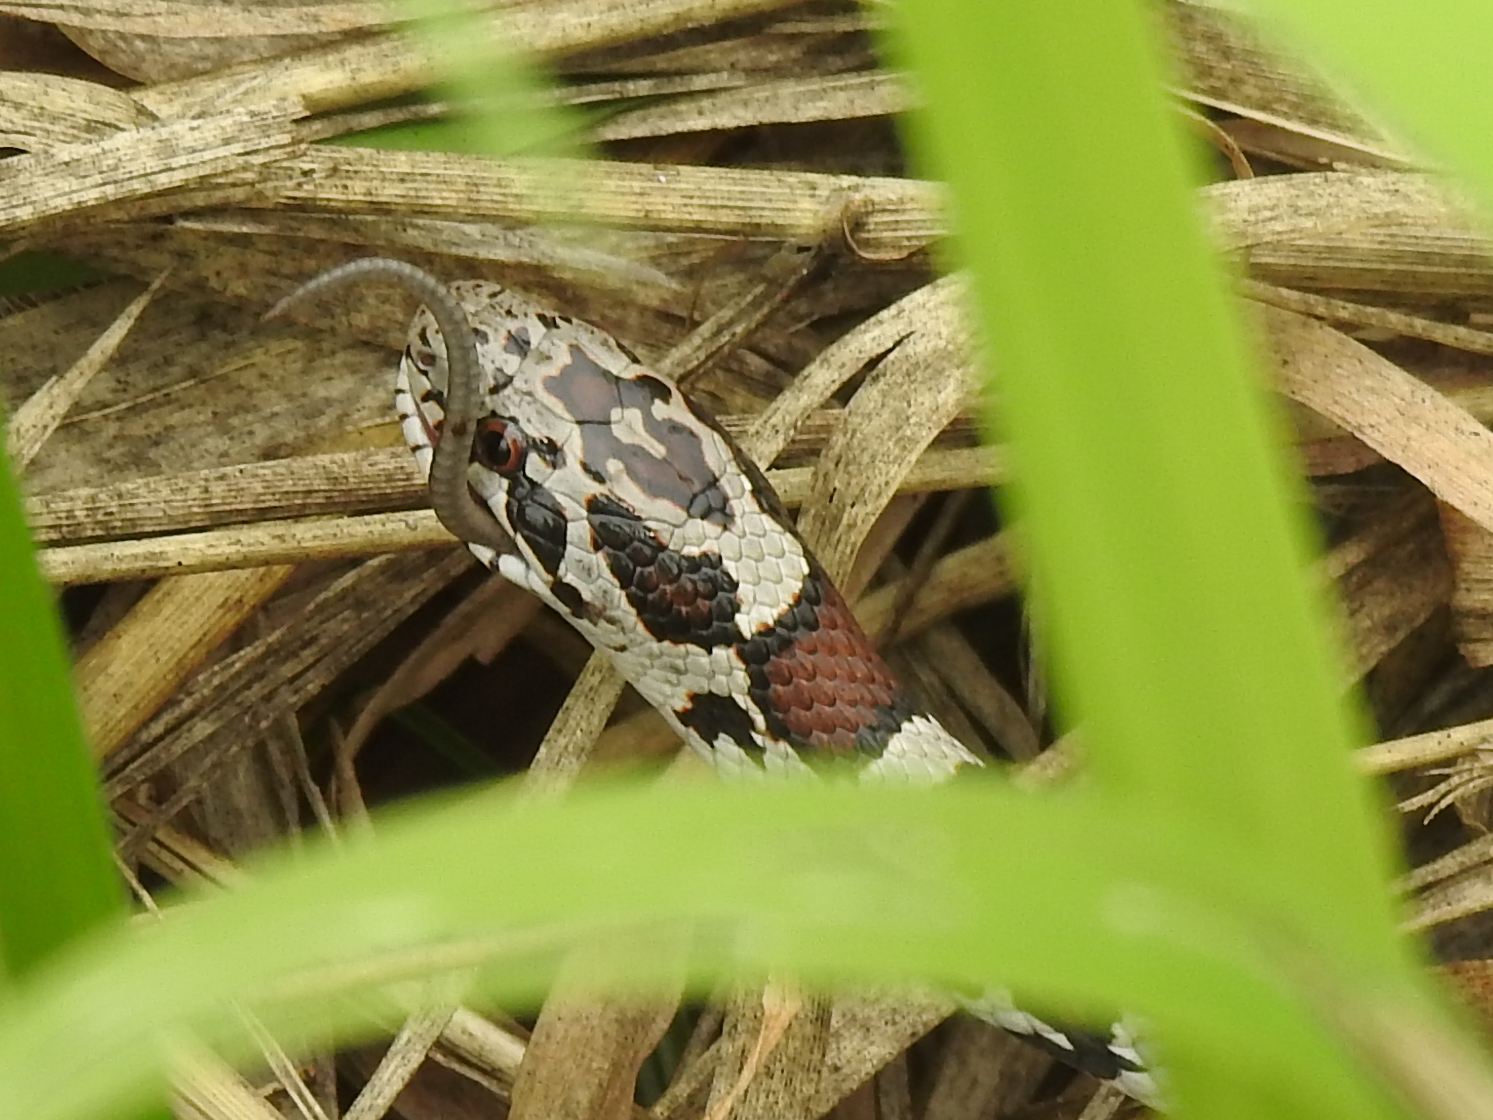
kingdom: Animalia
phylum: Chordata
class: Squamata
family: Colubridae
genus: Lampropeltis
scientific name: Lampropeltis triangulum
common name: Eastern milksnake
